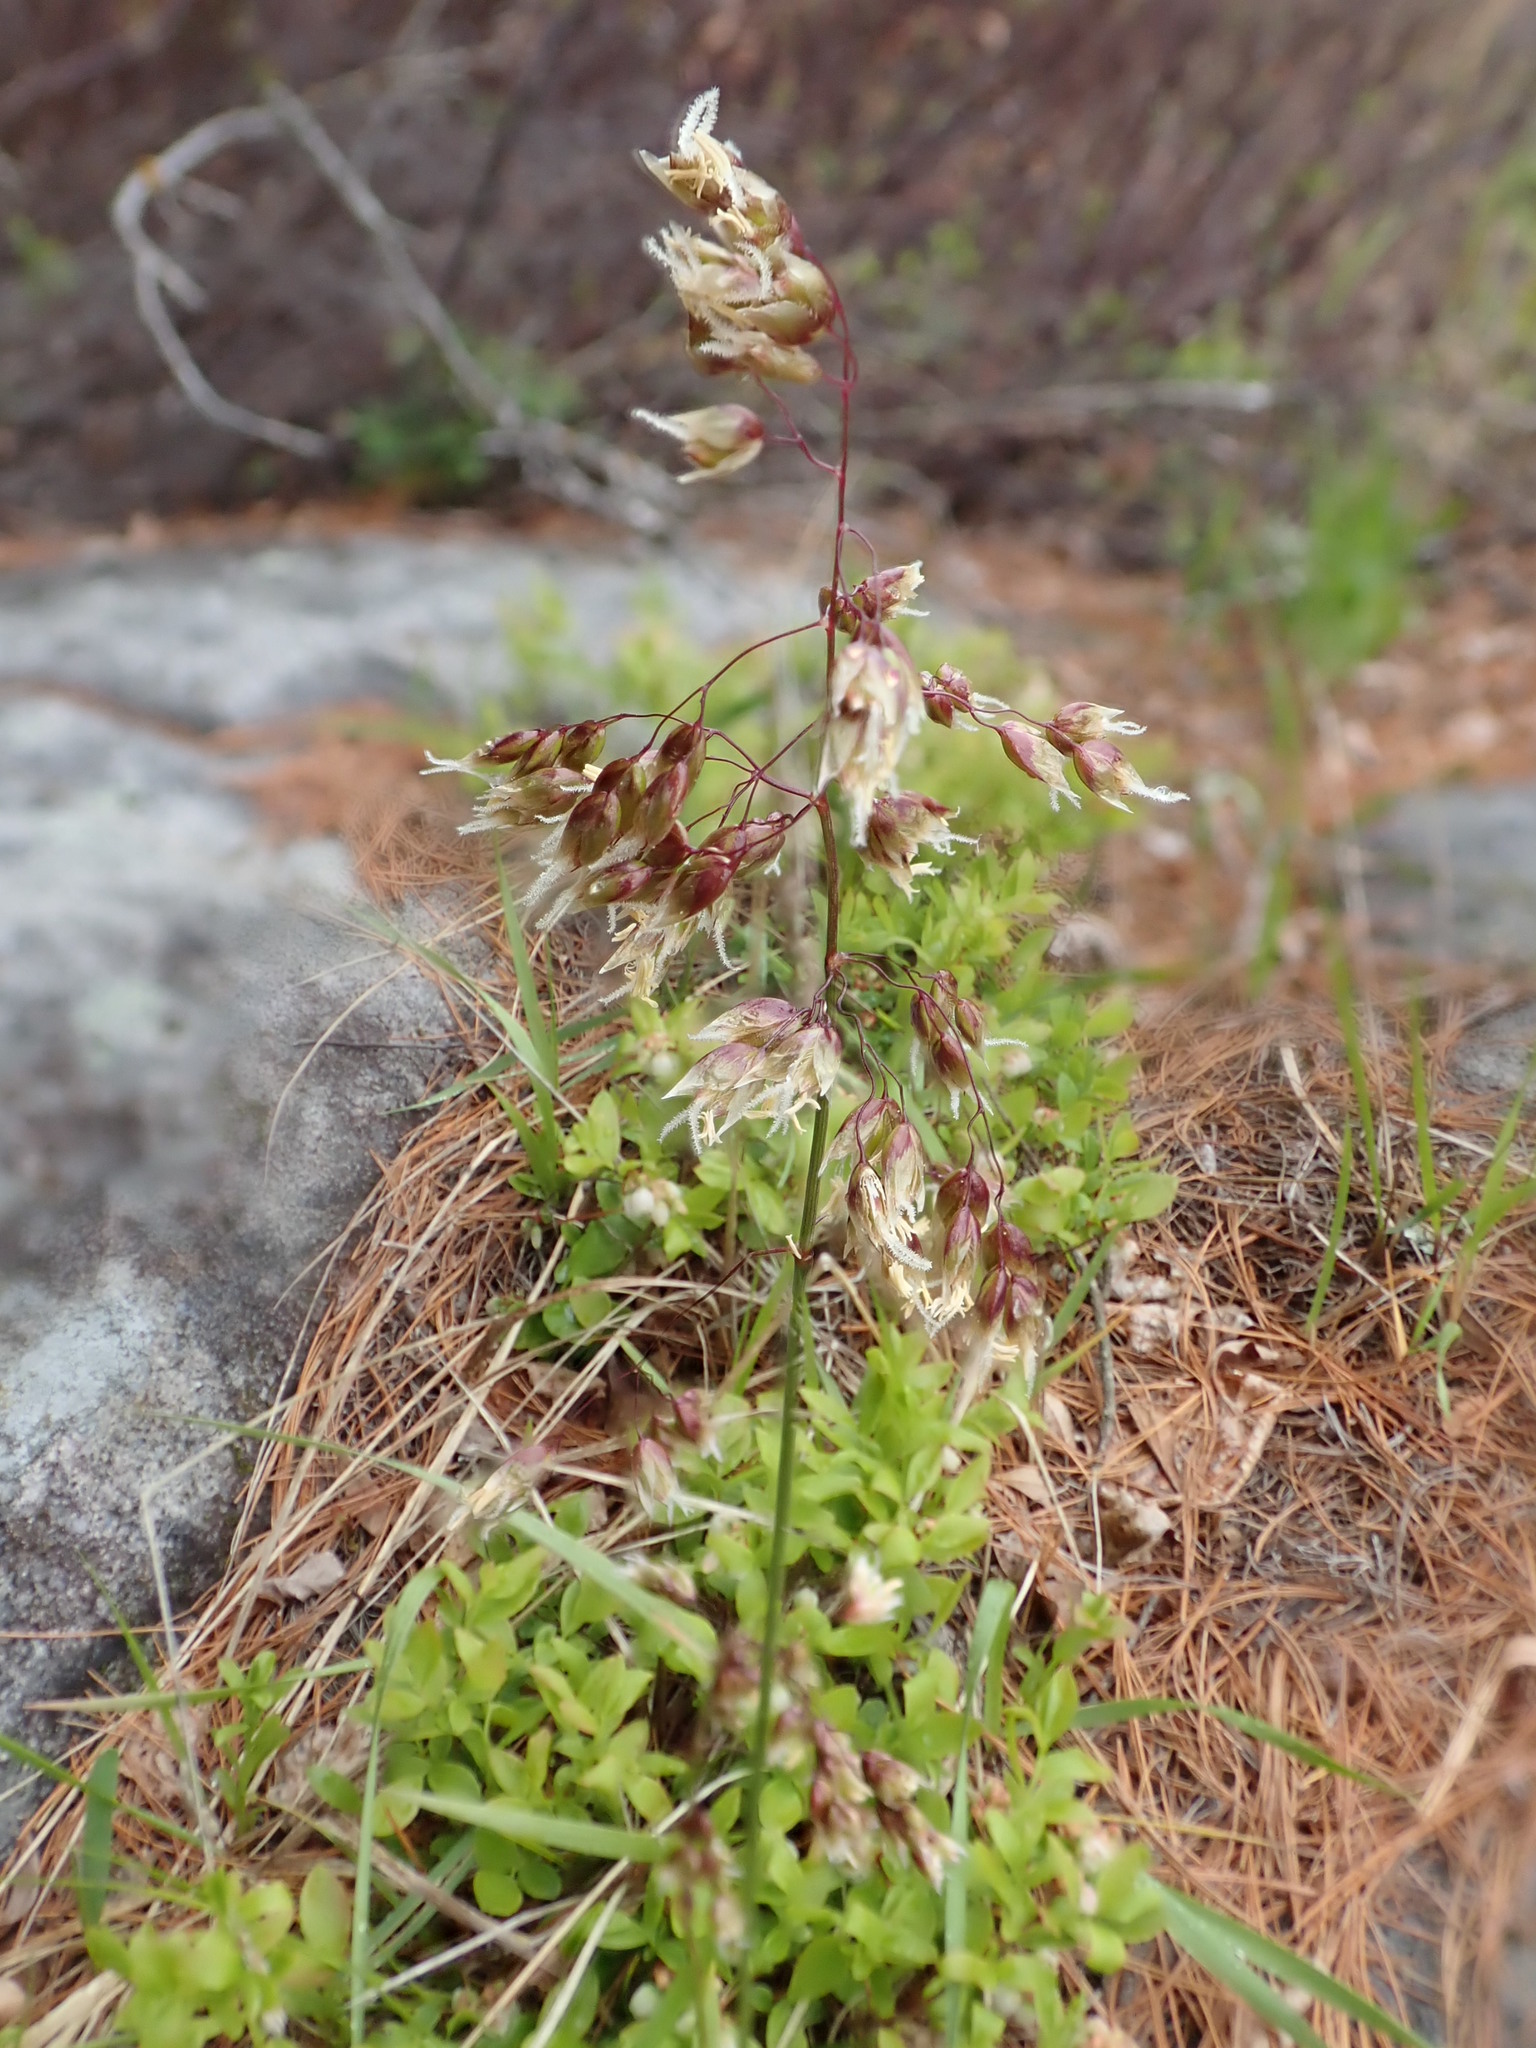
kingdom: Plantae
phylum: Tracheophyta
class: Liliopsida
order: Poales
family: Poaceae
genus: Anthoxanthum
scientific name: Anthoxanthum nitens
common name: Holy grass
